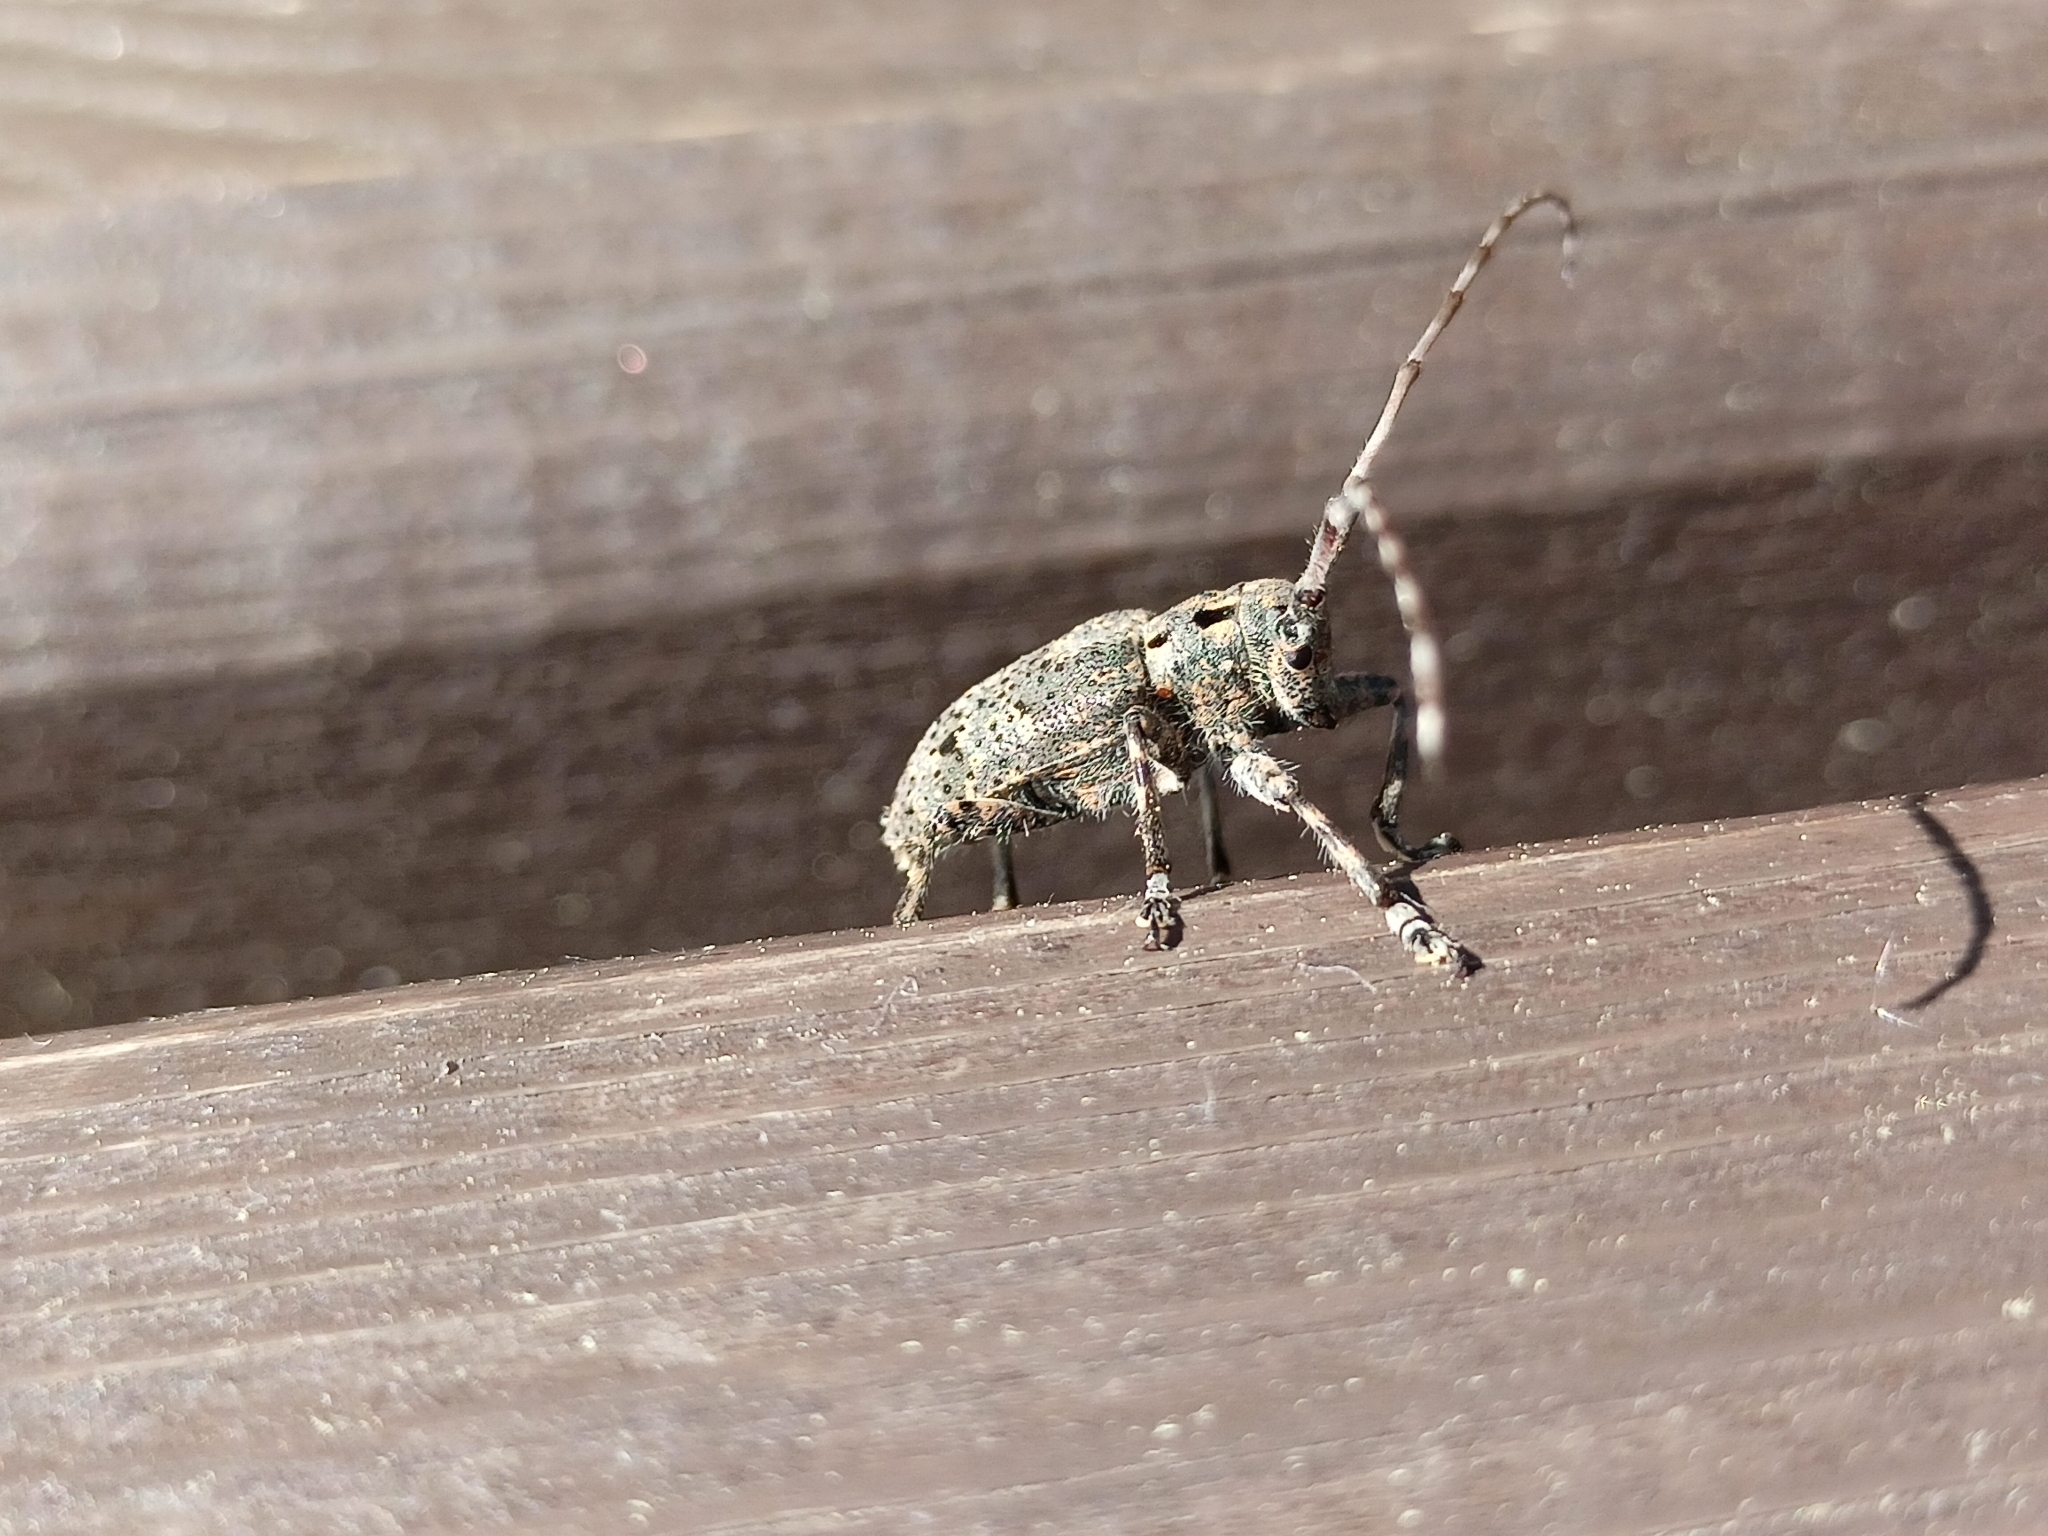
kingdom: Animalia
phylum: Arthropoda
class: Insecta
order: Coleoptera
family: Cerambycidae
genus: Mesosa
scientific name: Mesosa myops
